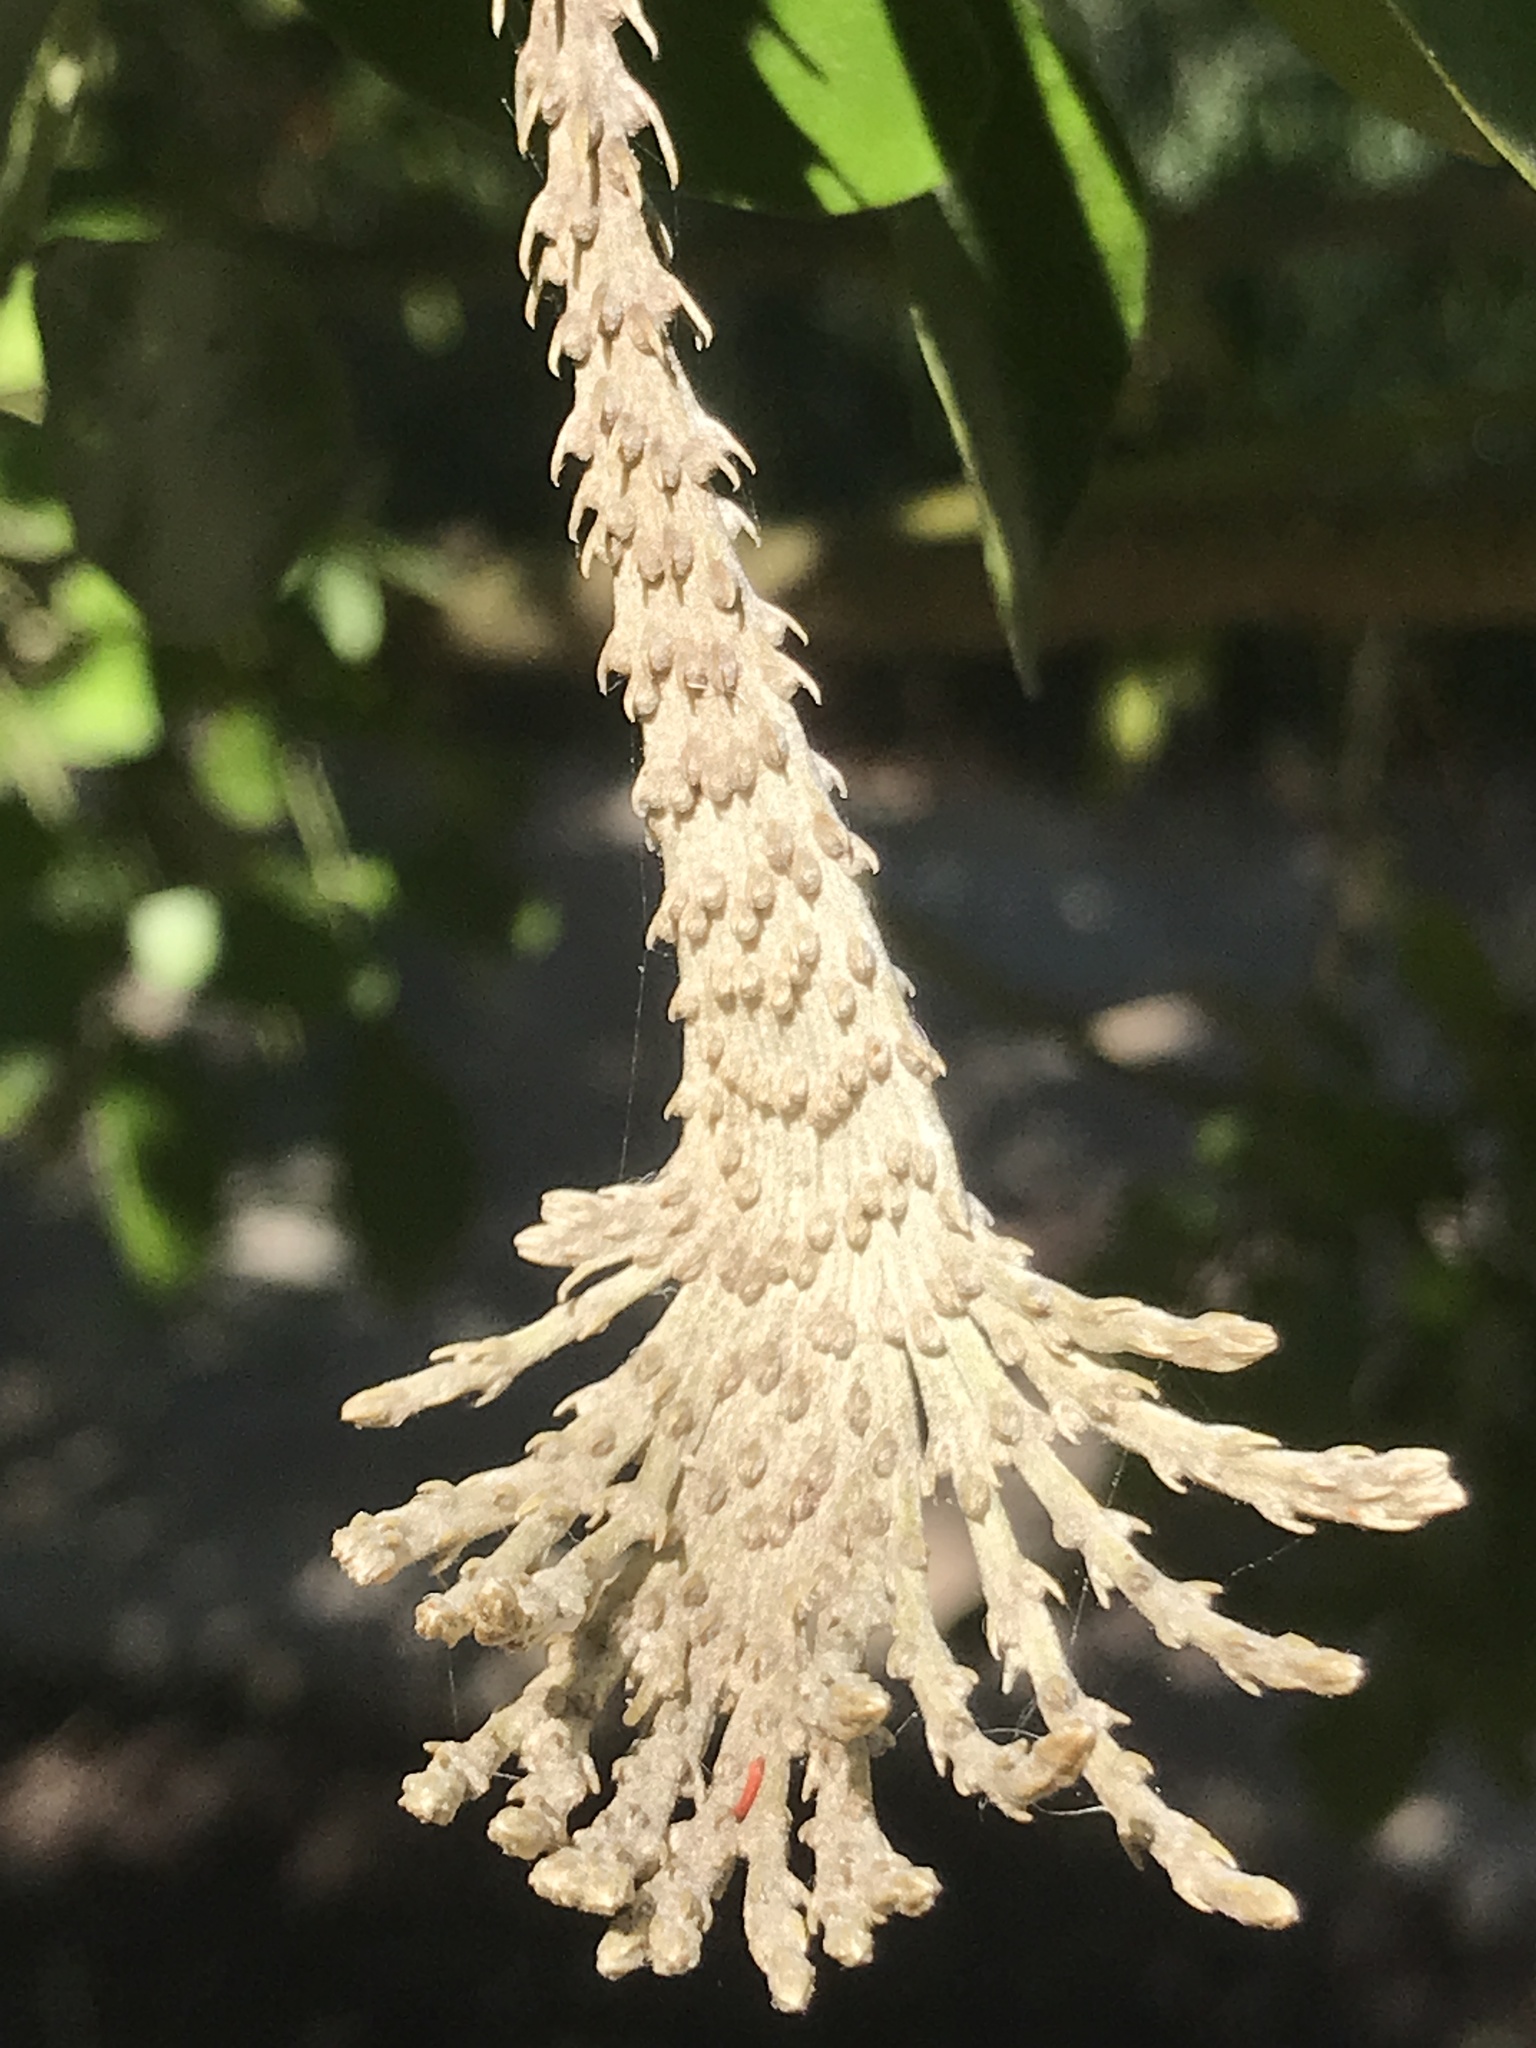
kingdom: Plantae
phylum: Tracheophyta
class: Magnoliopsida
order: Fabales
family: Fabaceae
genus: Dermatophyllum
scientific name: Dermatophyllum secundiflorum
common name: Texas-mountain-laurel
